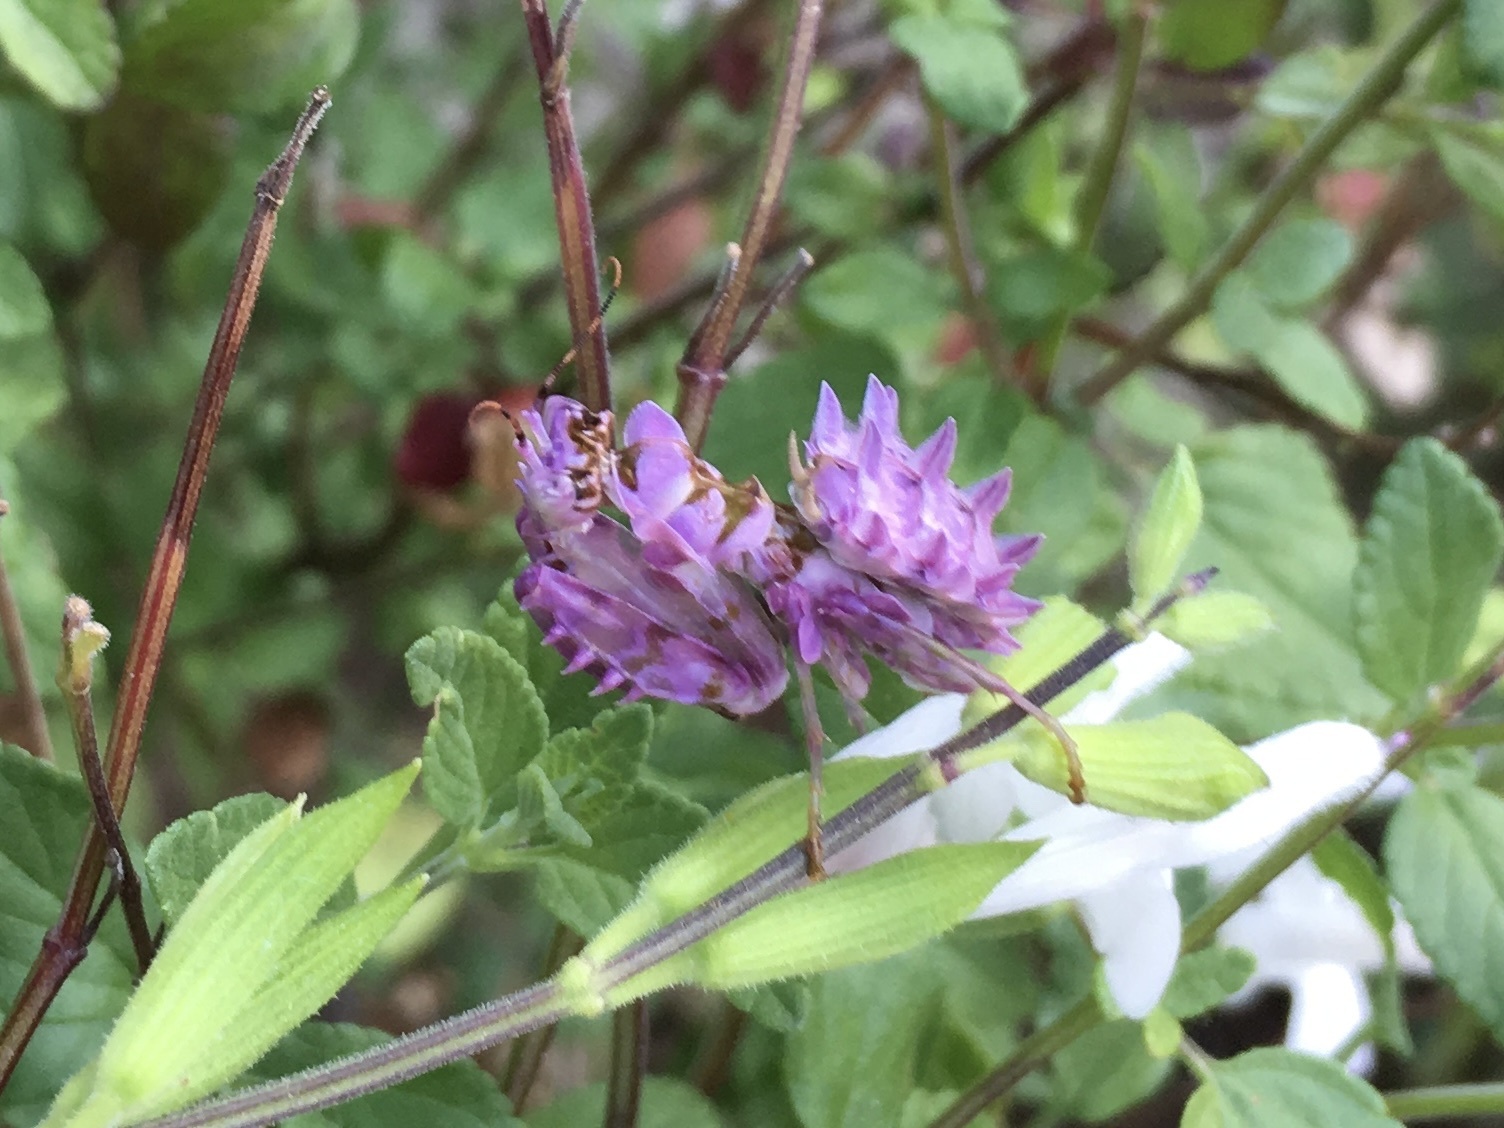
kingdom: Animalia
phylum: Arthropoda
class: Insecta
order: Mantodea
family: Hymenopodidae
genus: Pseudocreobotra
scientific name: Pseudocreobotra wahlbergi
